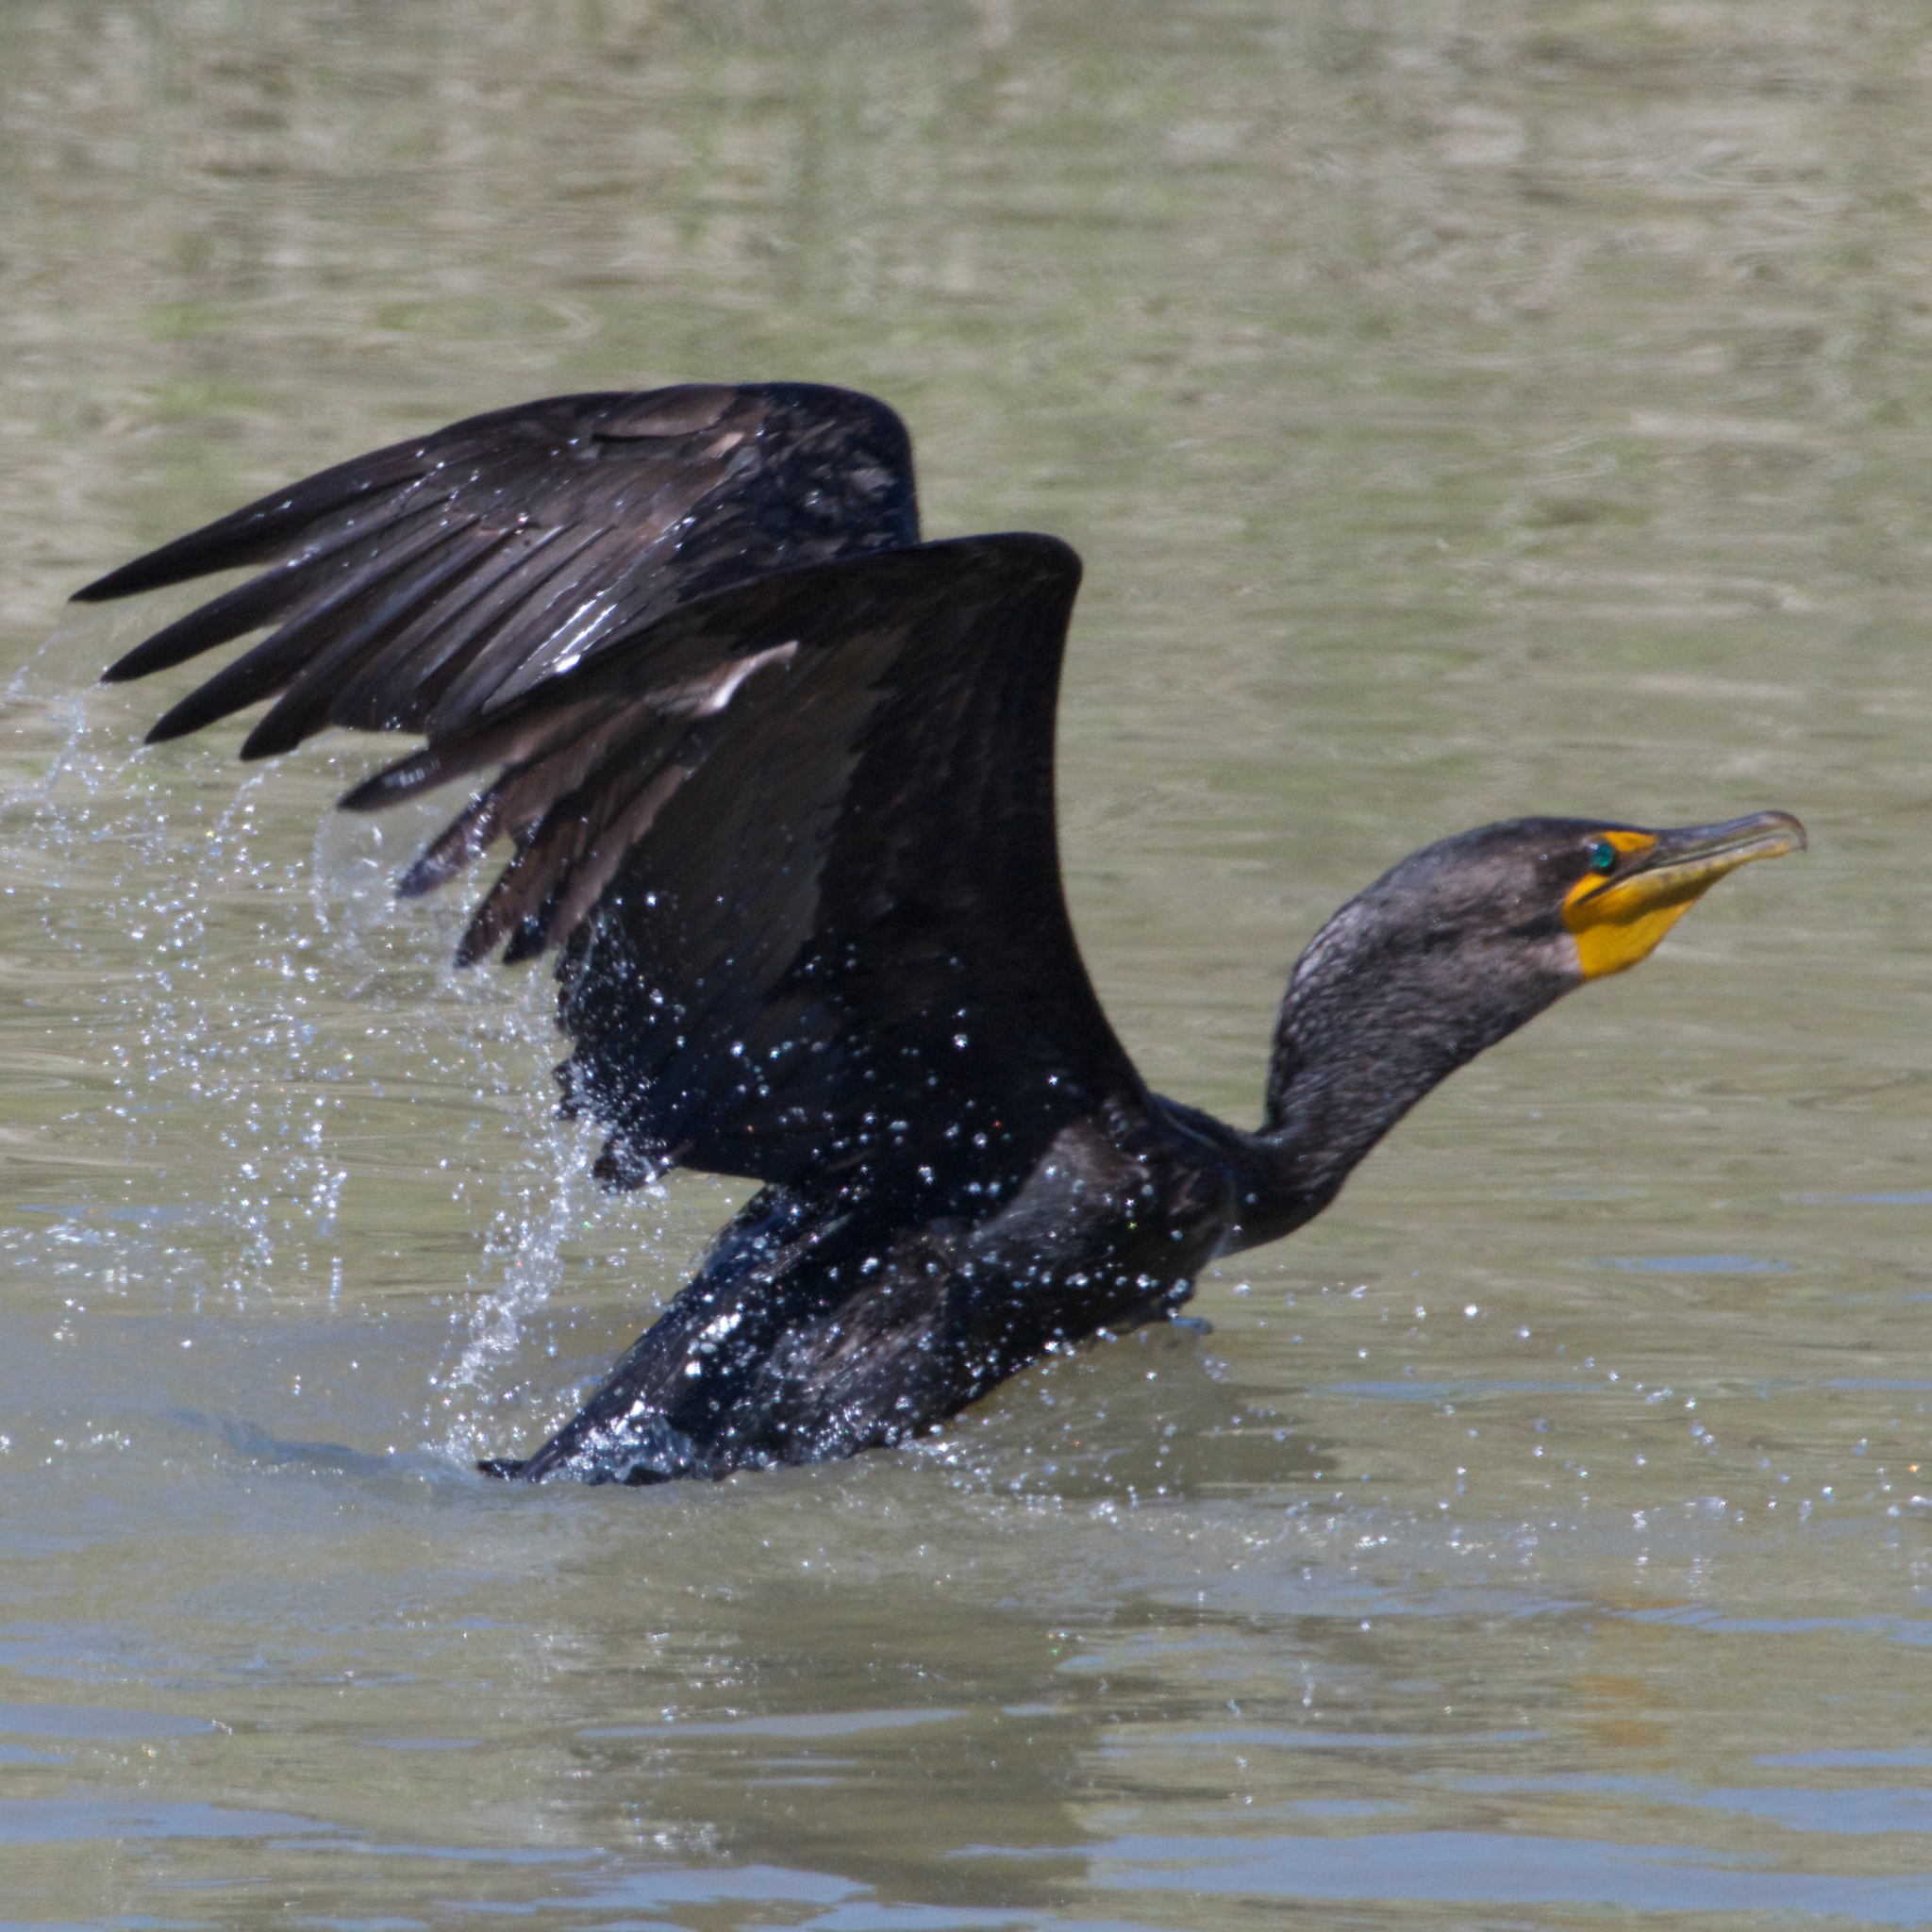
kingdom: Animalia
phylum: Chordata
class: Aves
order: Suliformes
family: Phalacrocoracidae
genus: Phalacrocorax
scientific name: Phalacrocorax auritus
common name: Double-crested cormorant
